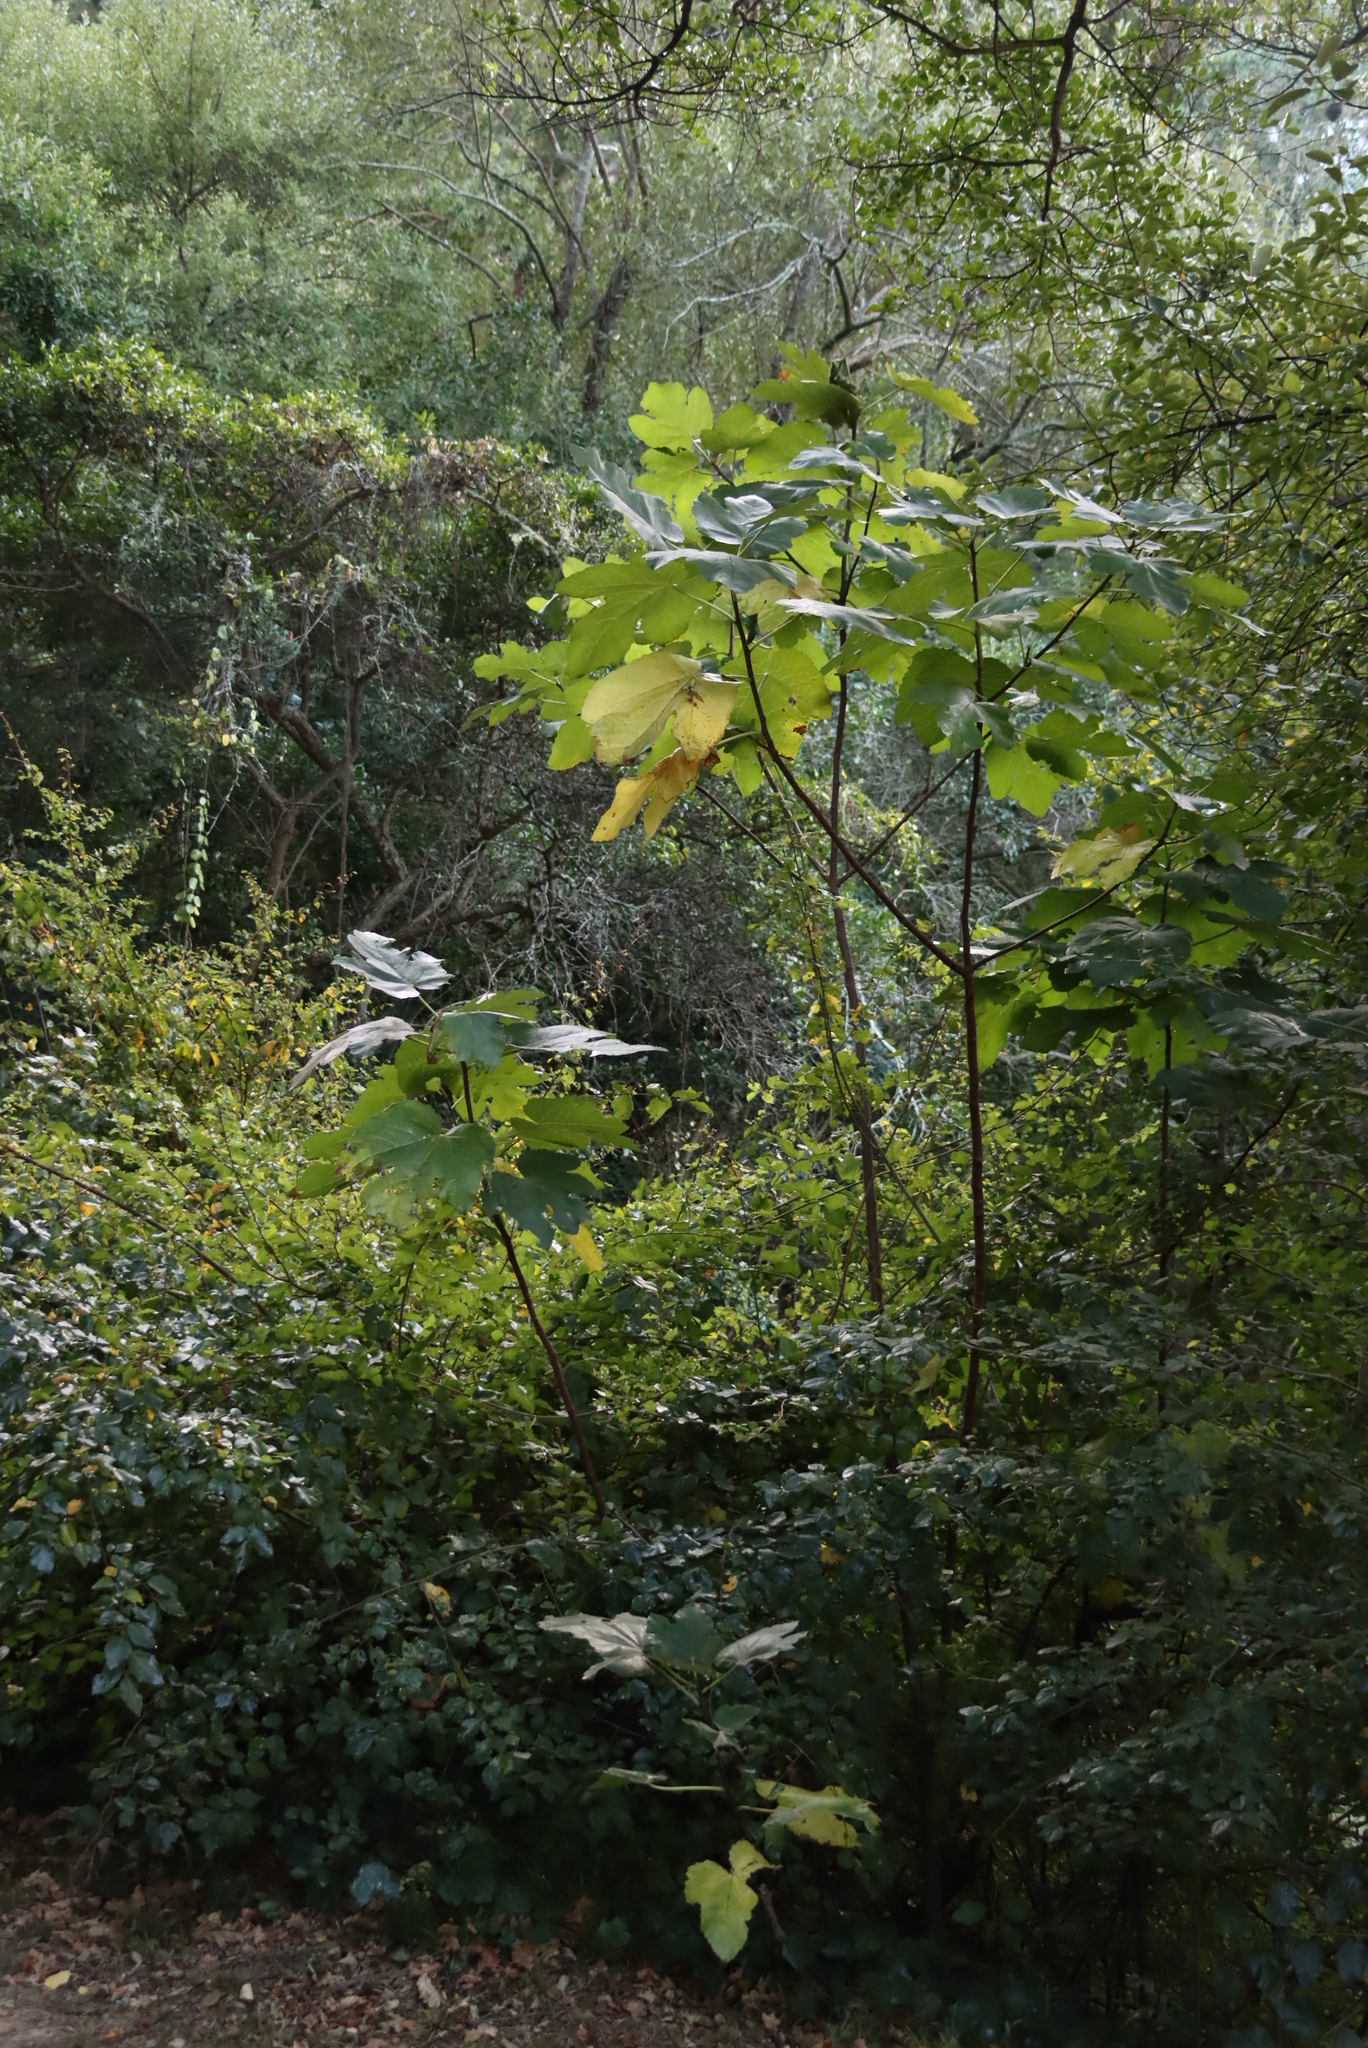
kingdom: Plantae
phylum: Tracheophyta
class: Magnoliopsida
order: Rosales
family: Moraceae
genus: Ficus
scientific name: Ficus carica
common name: Fig
